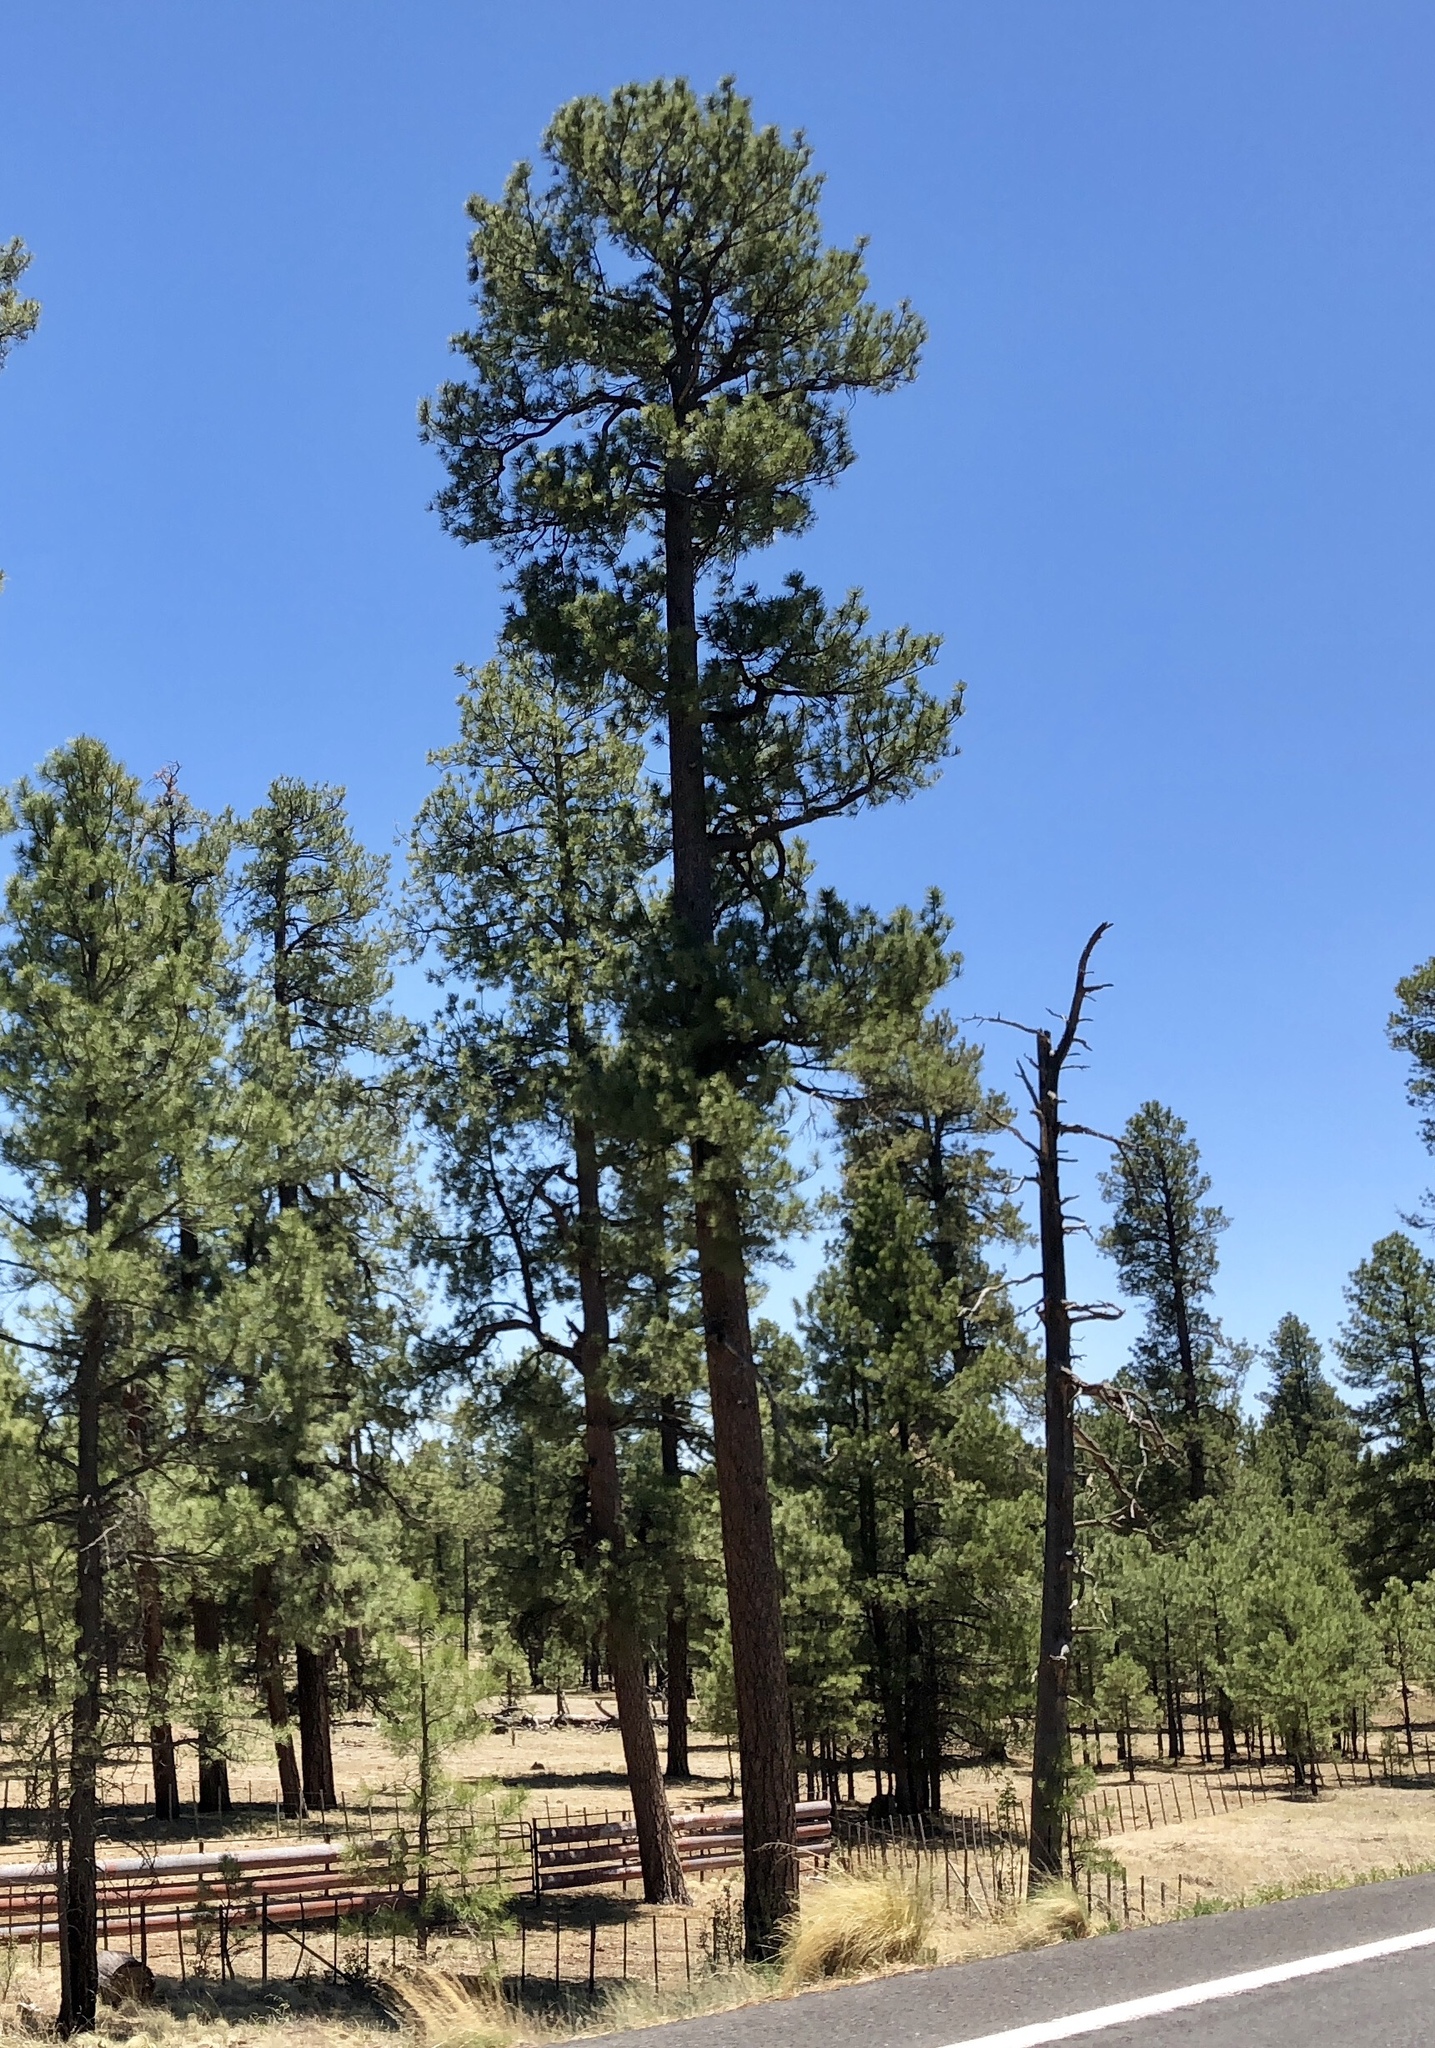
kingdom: Plantae
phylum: Tracheophyta
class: Pinopsida
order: Pinales
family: Pinaceae
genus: Pinus
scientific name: Pinus ponderosa
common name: Western yellow-pine
